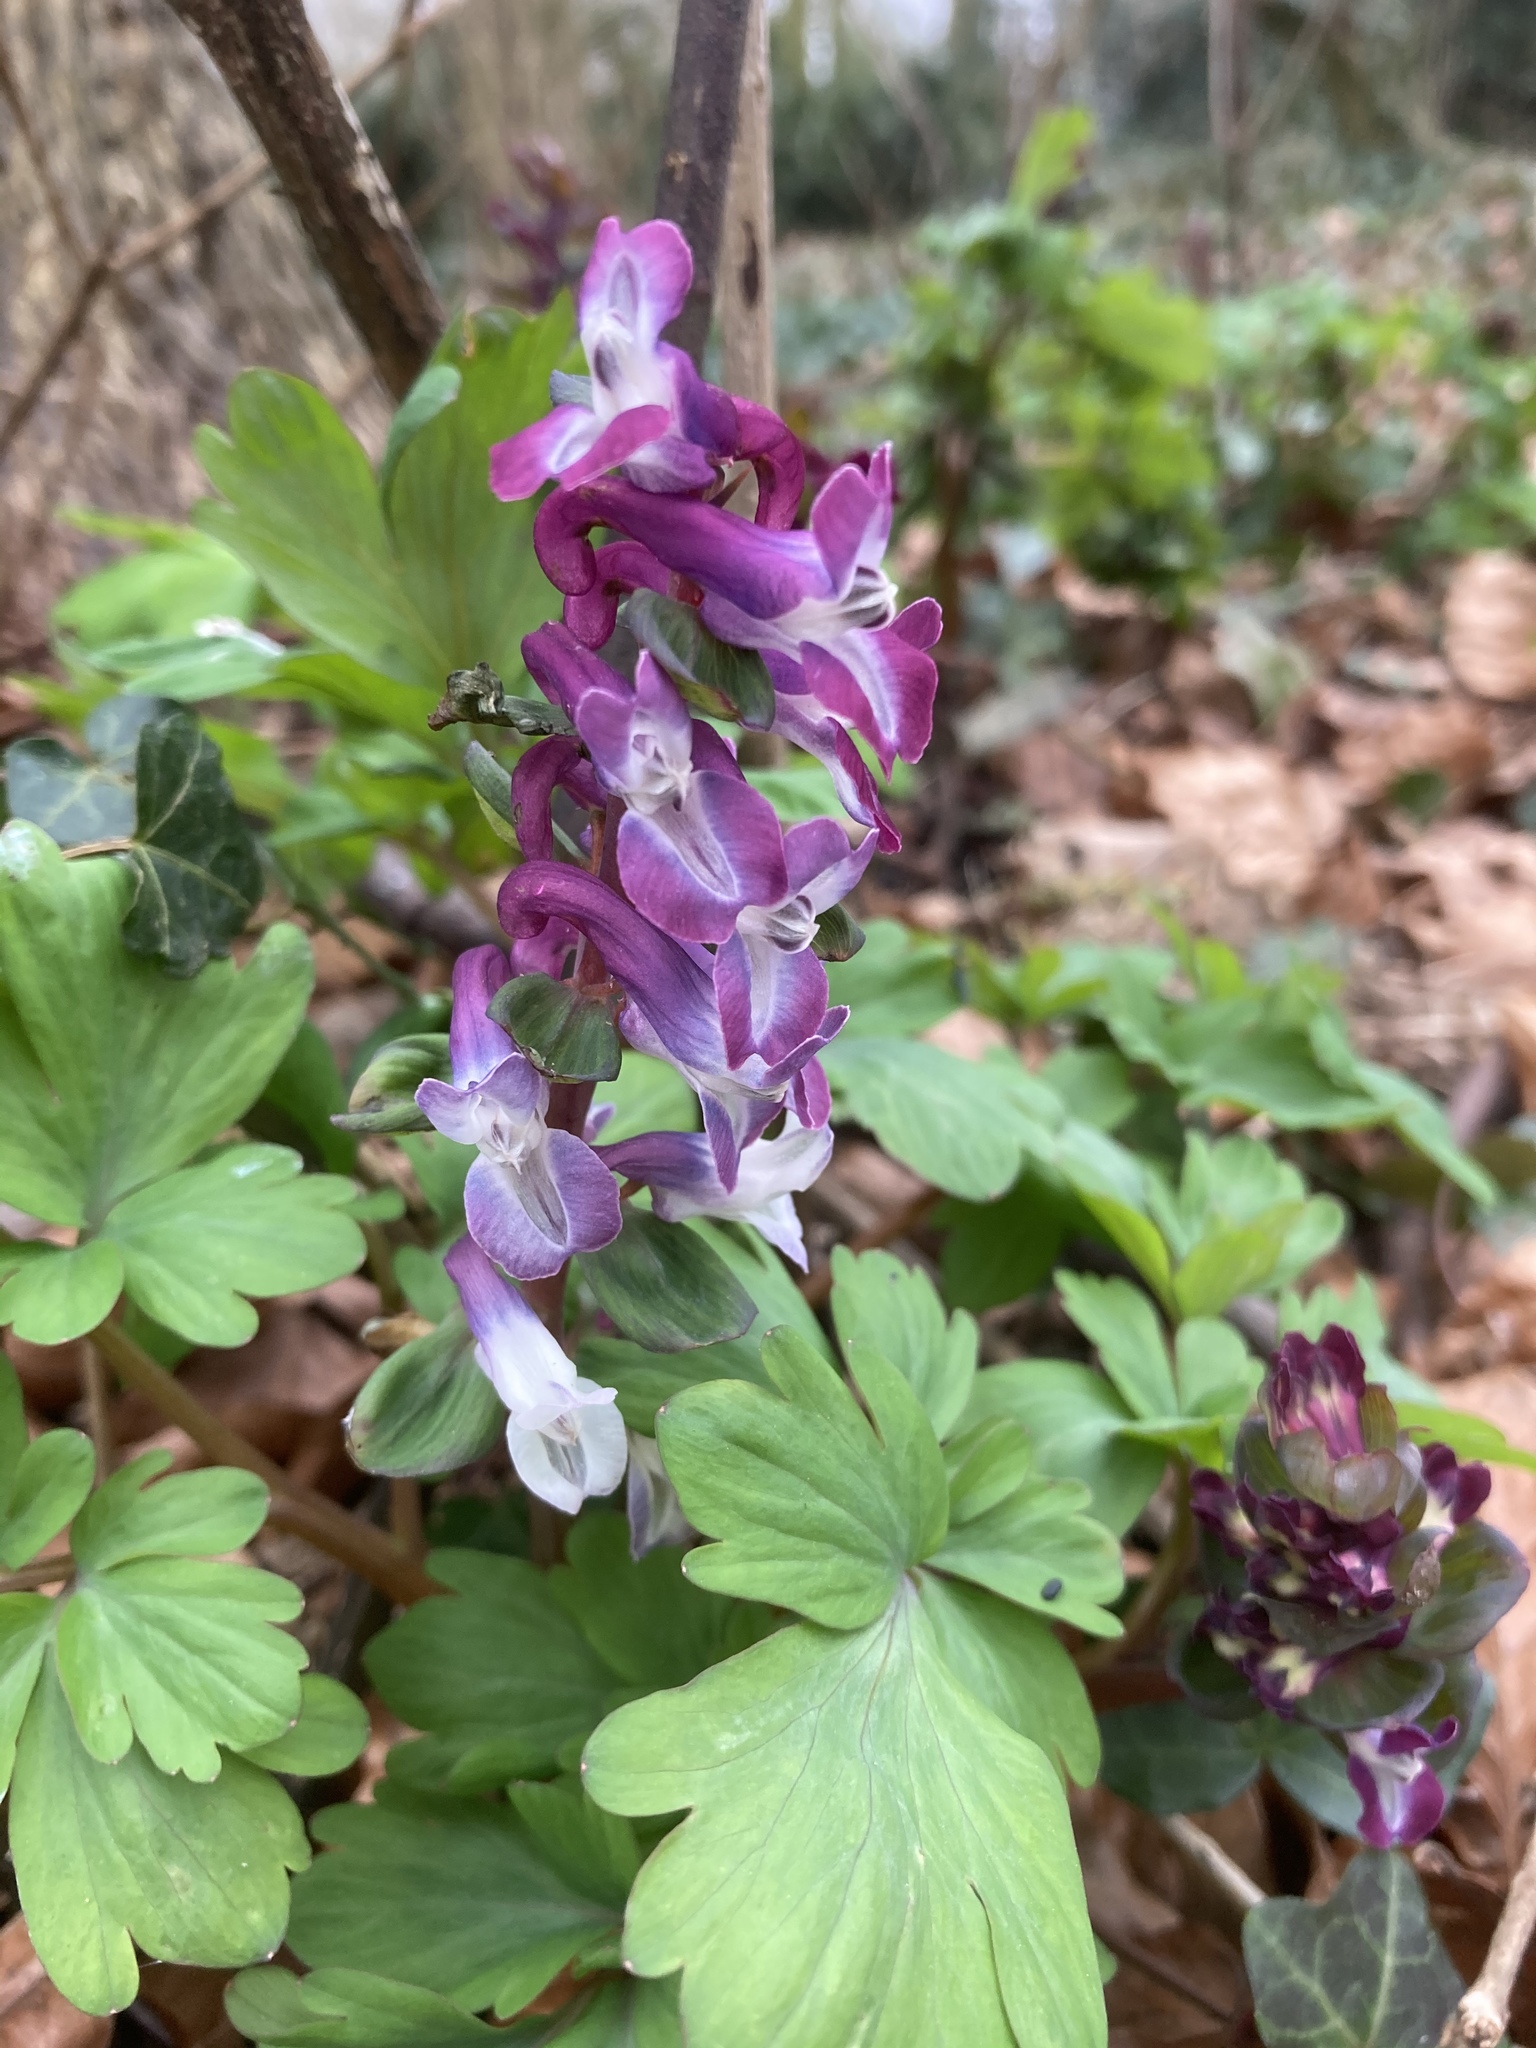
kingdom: Plantae
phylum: Tracheophyta
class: Magnoliopsida
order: Ranunculales
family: Papaveraceae
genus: Corydalis
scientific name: Corydalis cava
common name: Hollowroot
